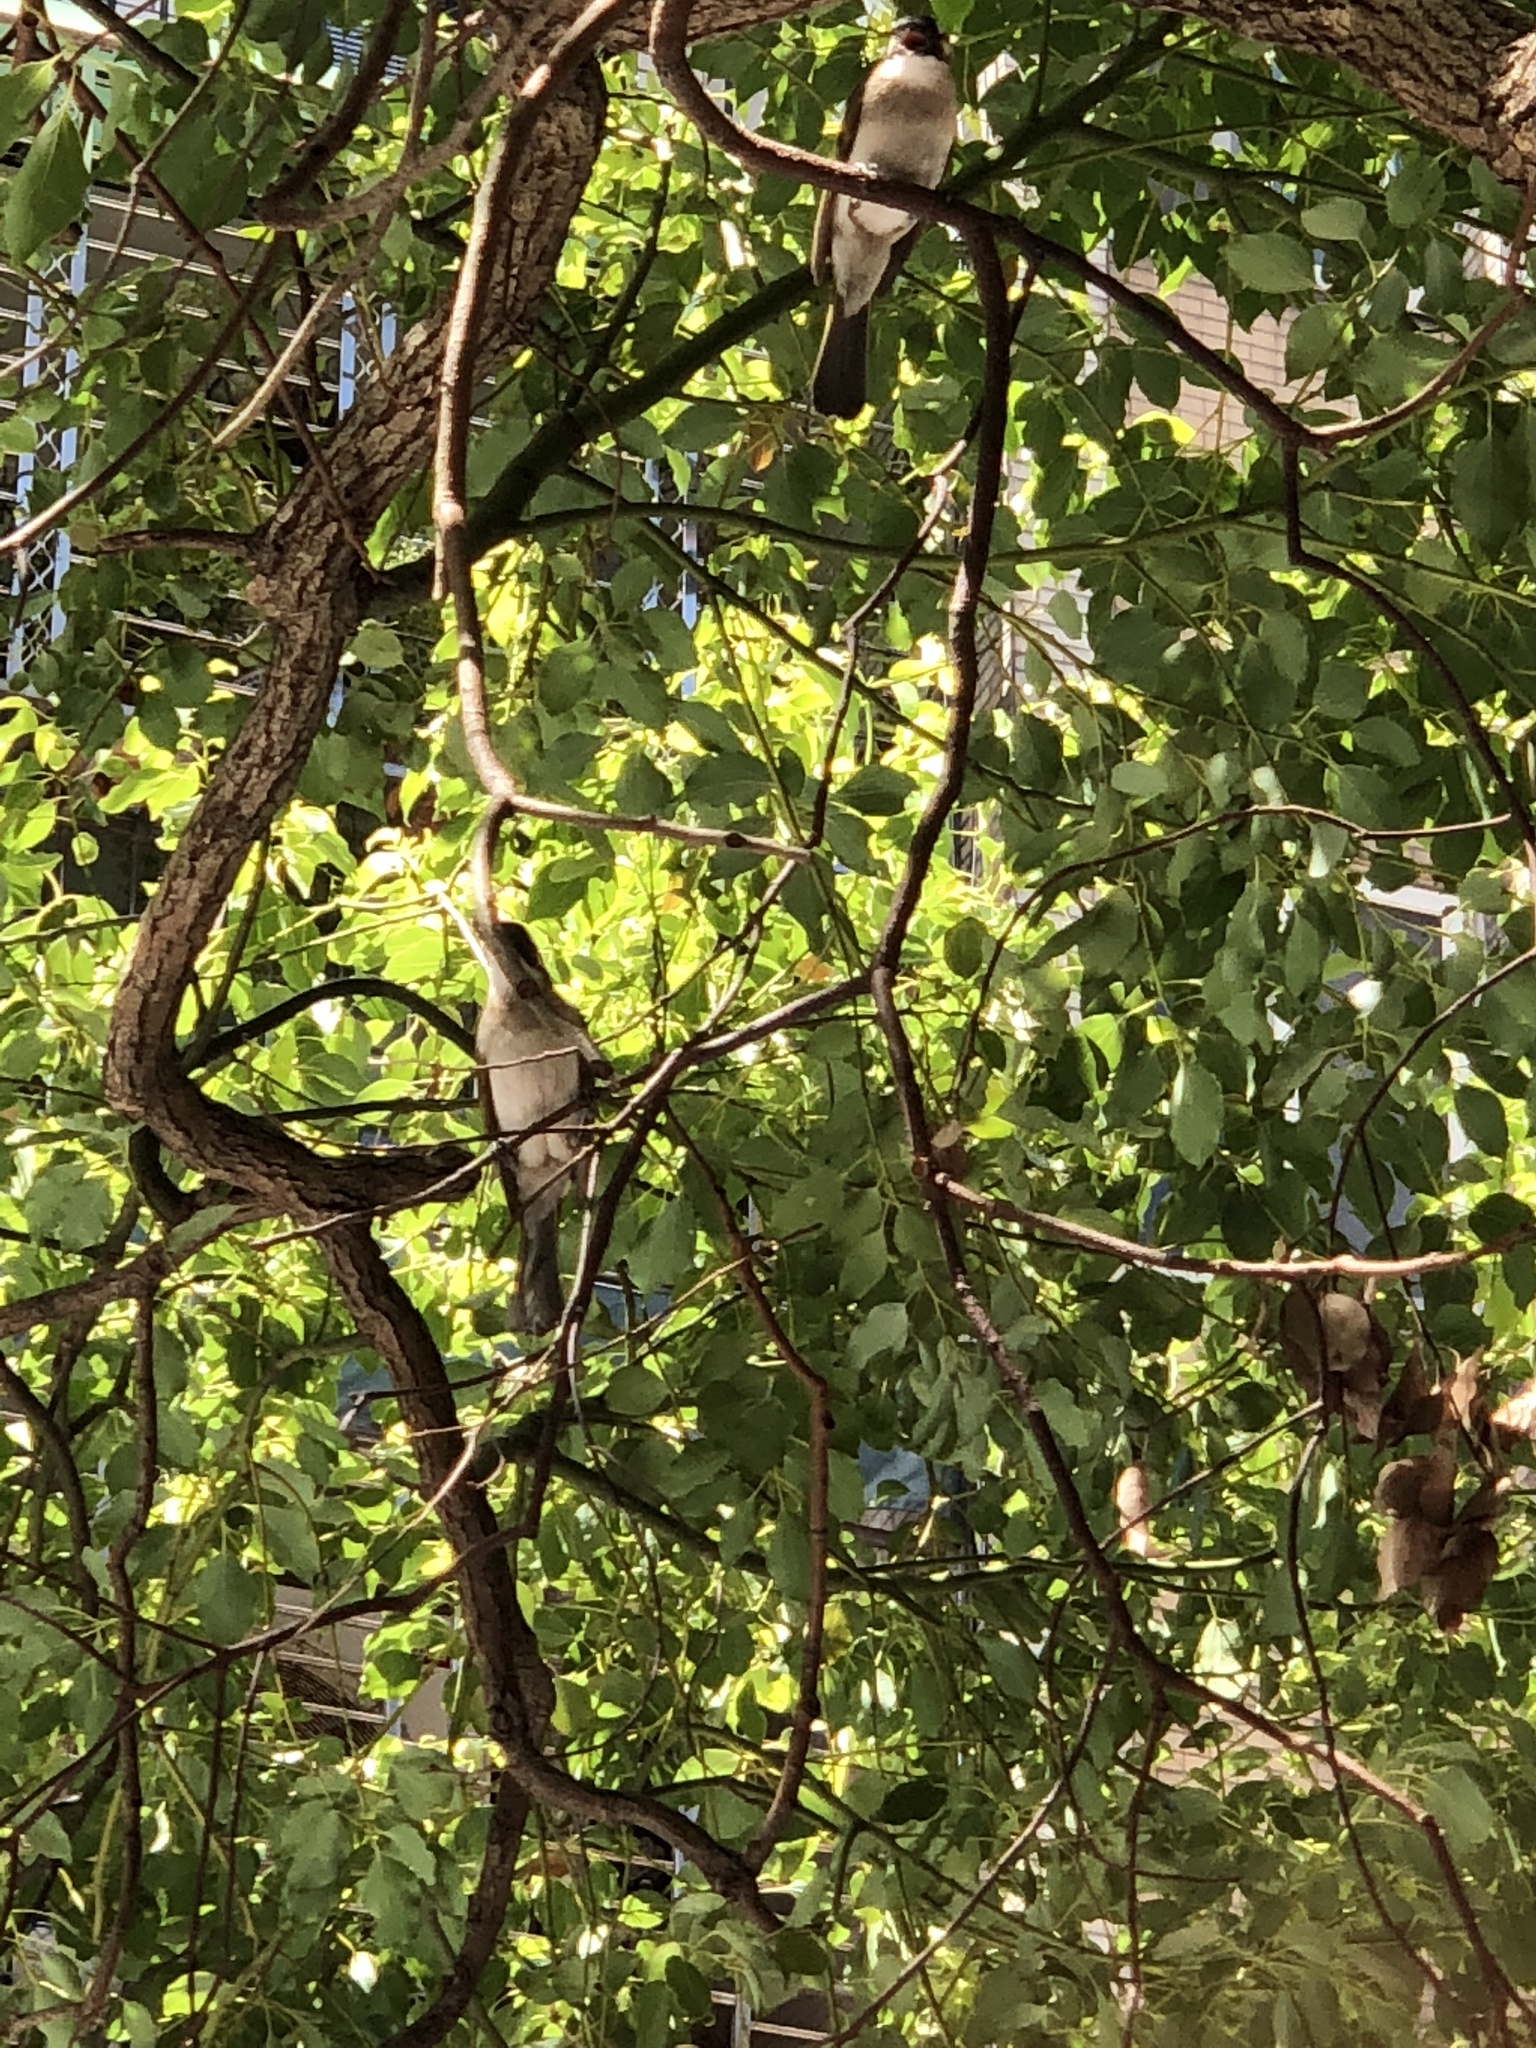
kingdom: Animalia
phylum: Chordata
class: Aves
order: Passeriformes
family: Pycnonotidae
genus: Pycnonotus
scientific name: Pycnonotus sinensis
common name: Light-vented bulbul
